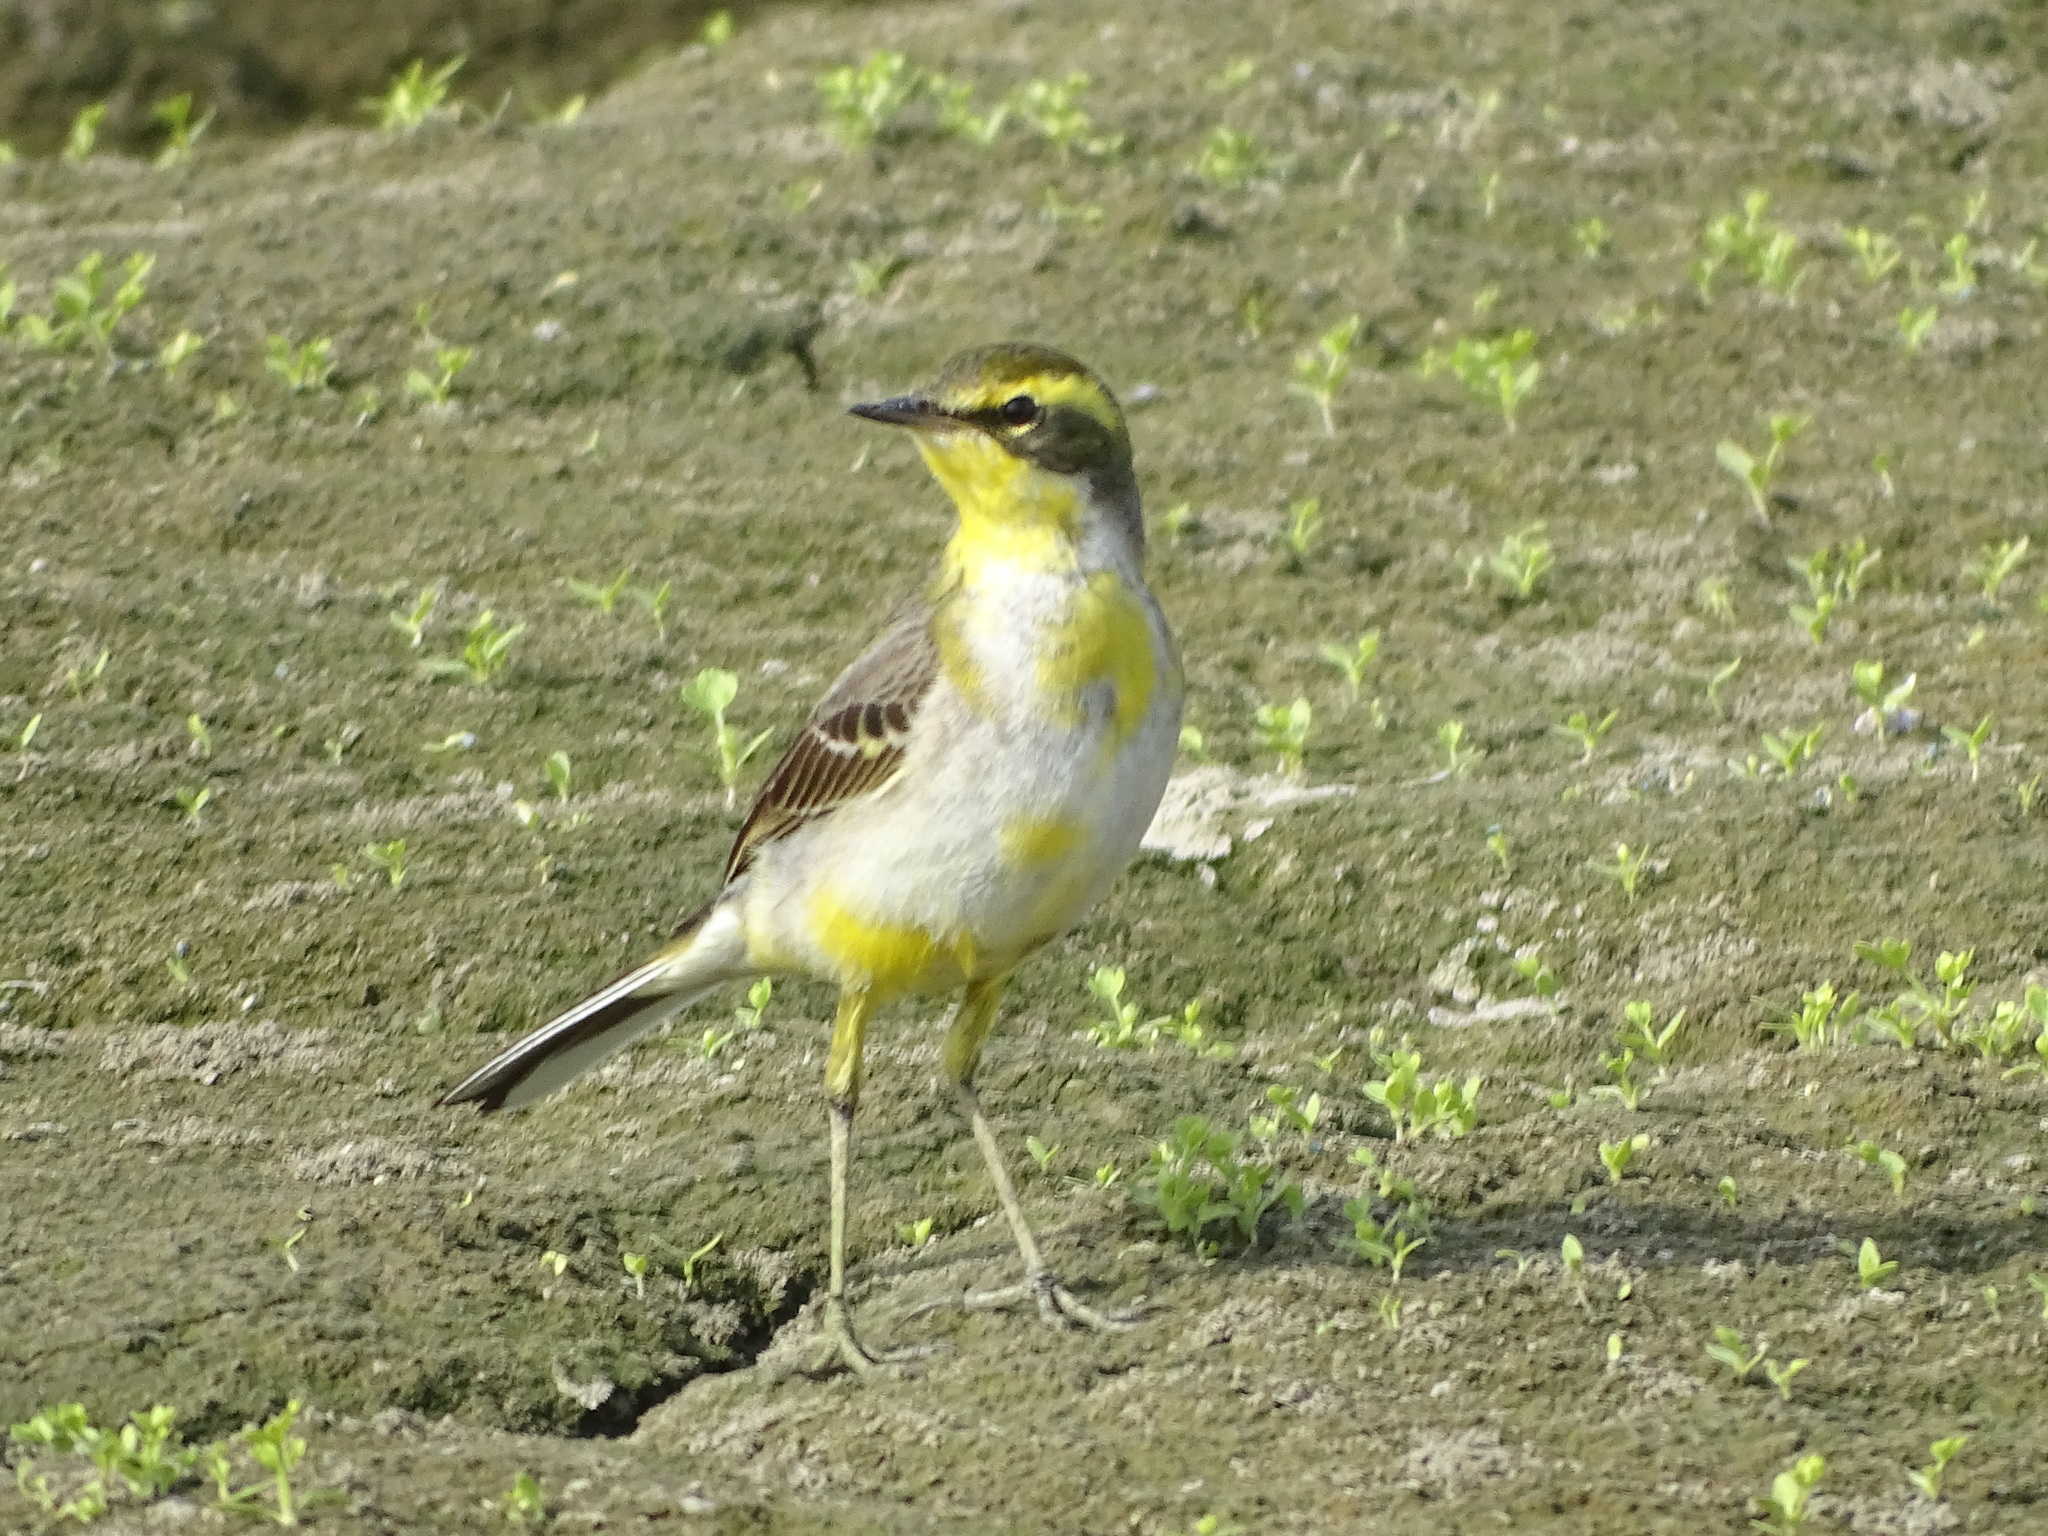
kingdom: Animalia
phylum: Chordata
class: Aves
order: Passeriformes
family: Motacillidae
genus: Motacilla
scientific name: Motacilla tschutschensis
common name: Eastern yellow wagtail
